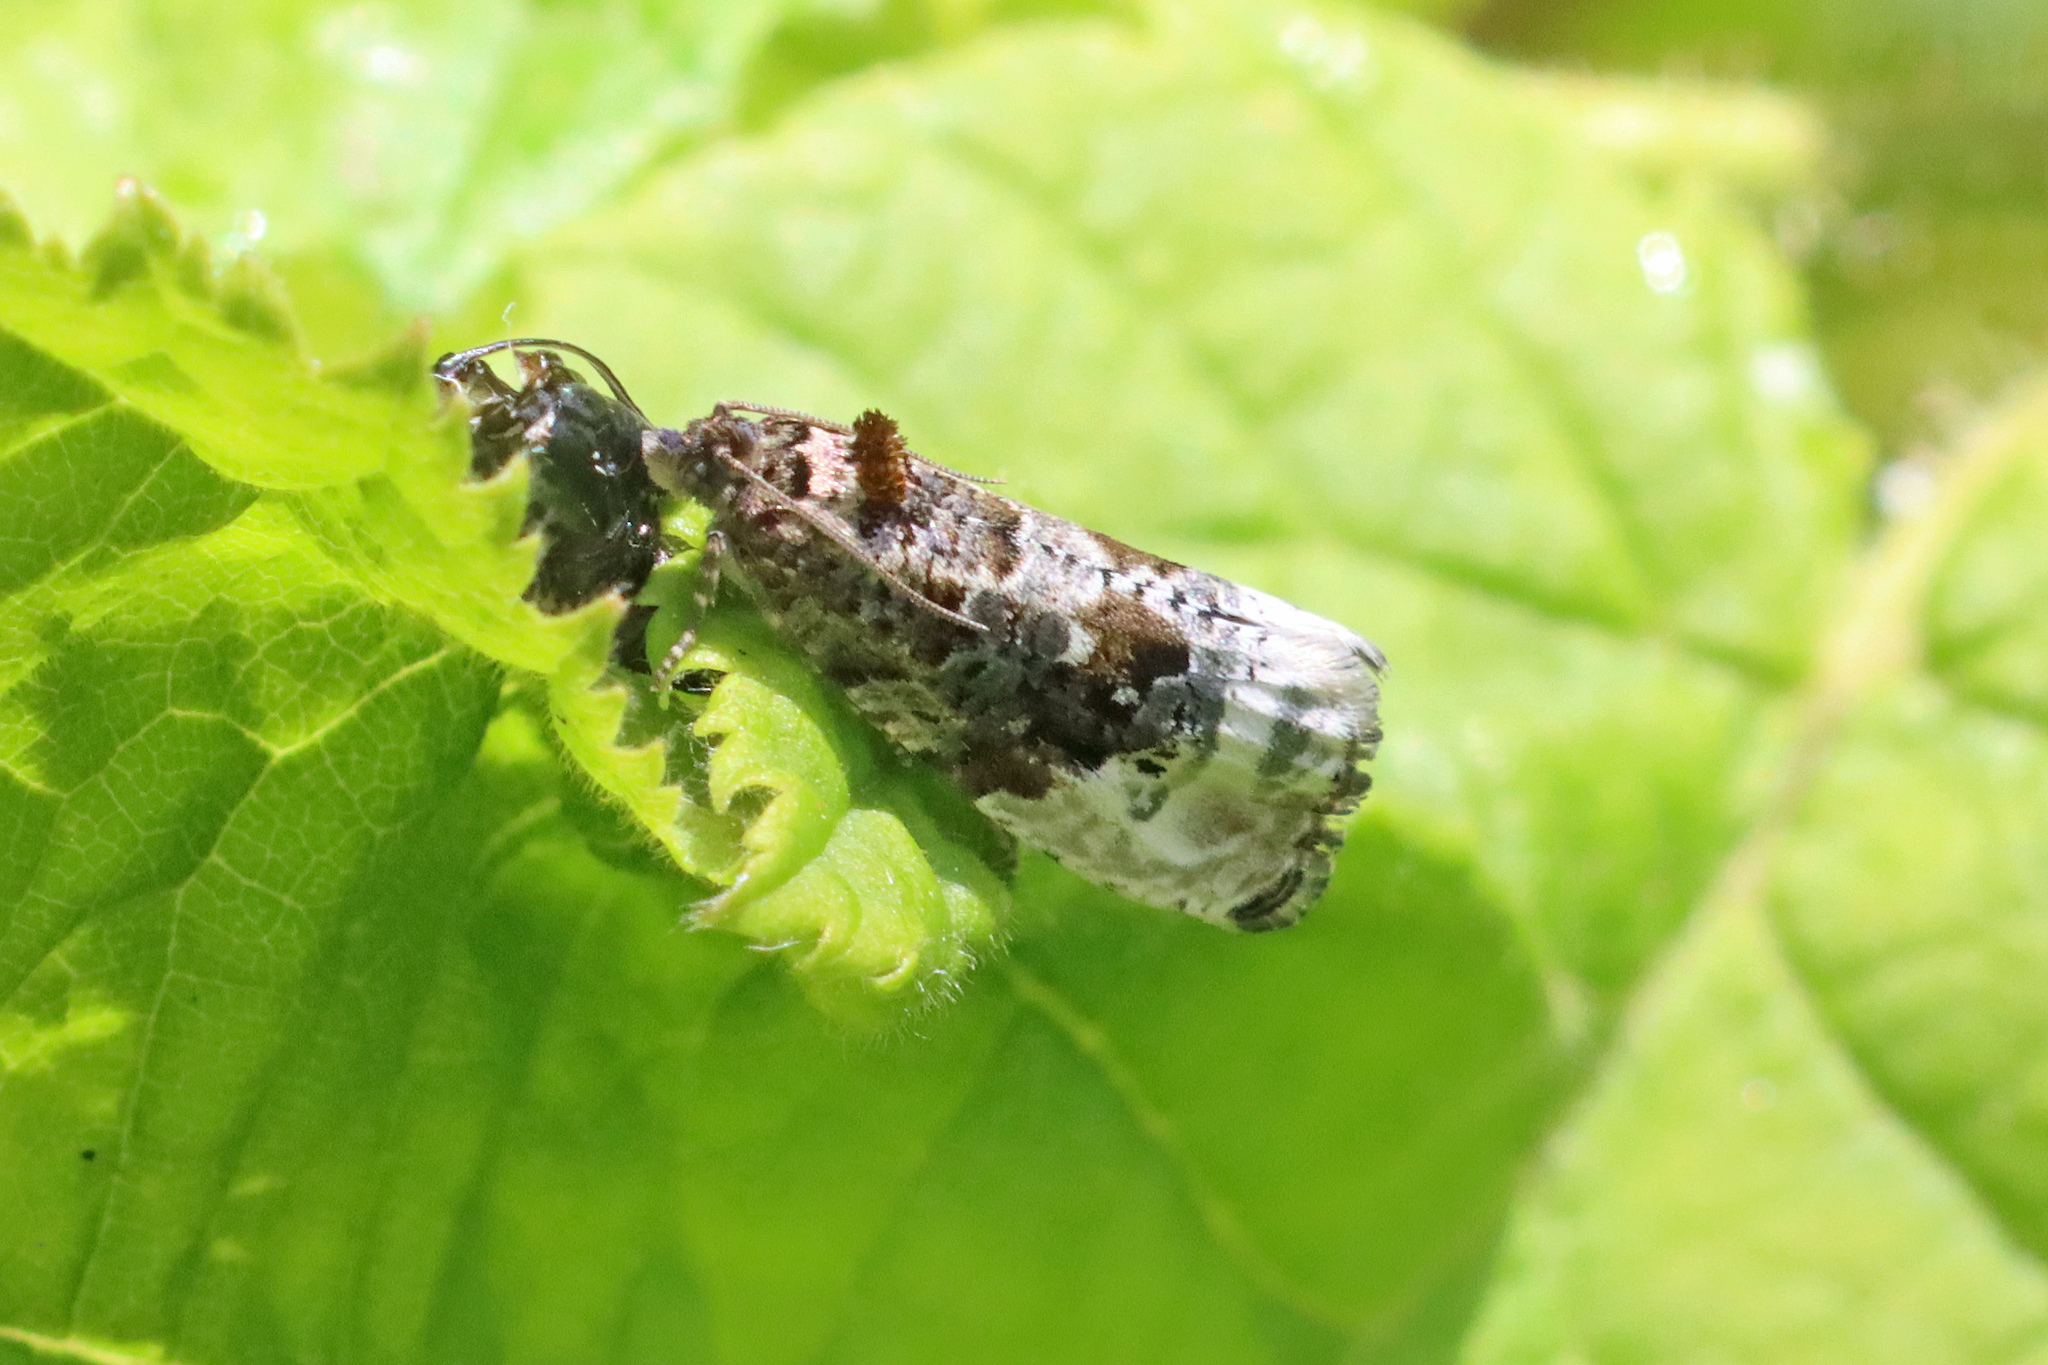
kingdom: Animalia
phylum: Arthropoda
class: Insecta
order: Lepidoptera
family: Tortricidae
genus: Hedya
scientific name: Hedya nubiferana
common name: Marbled orchard tortrix
